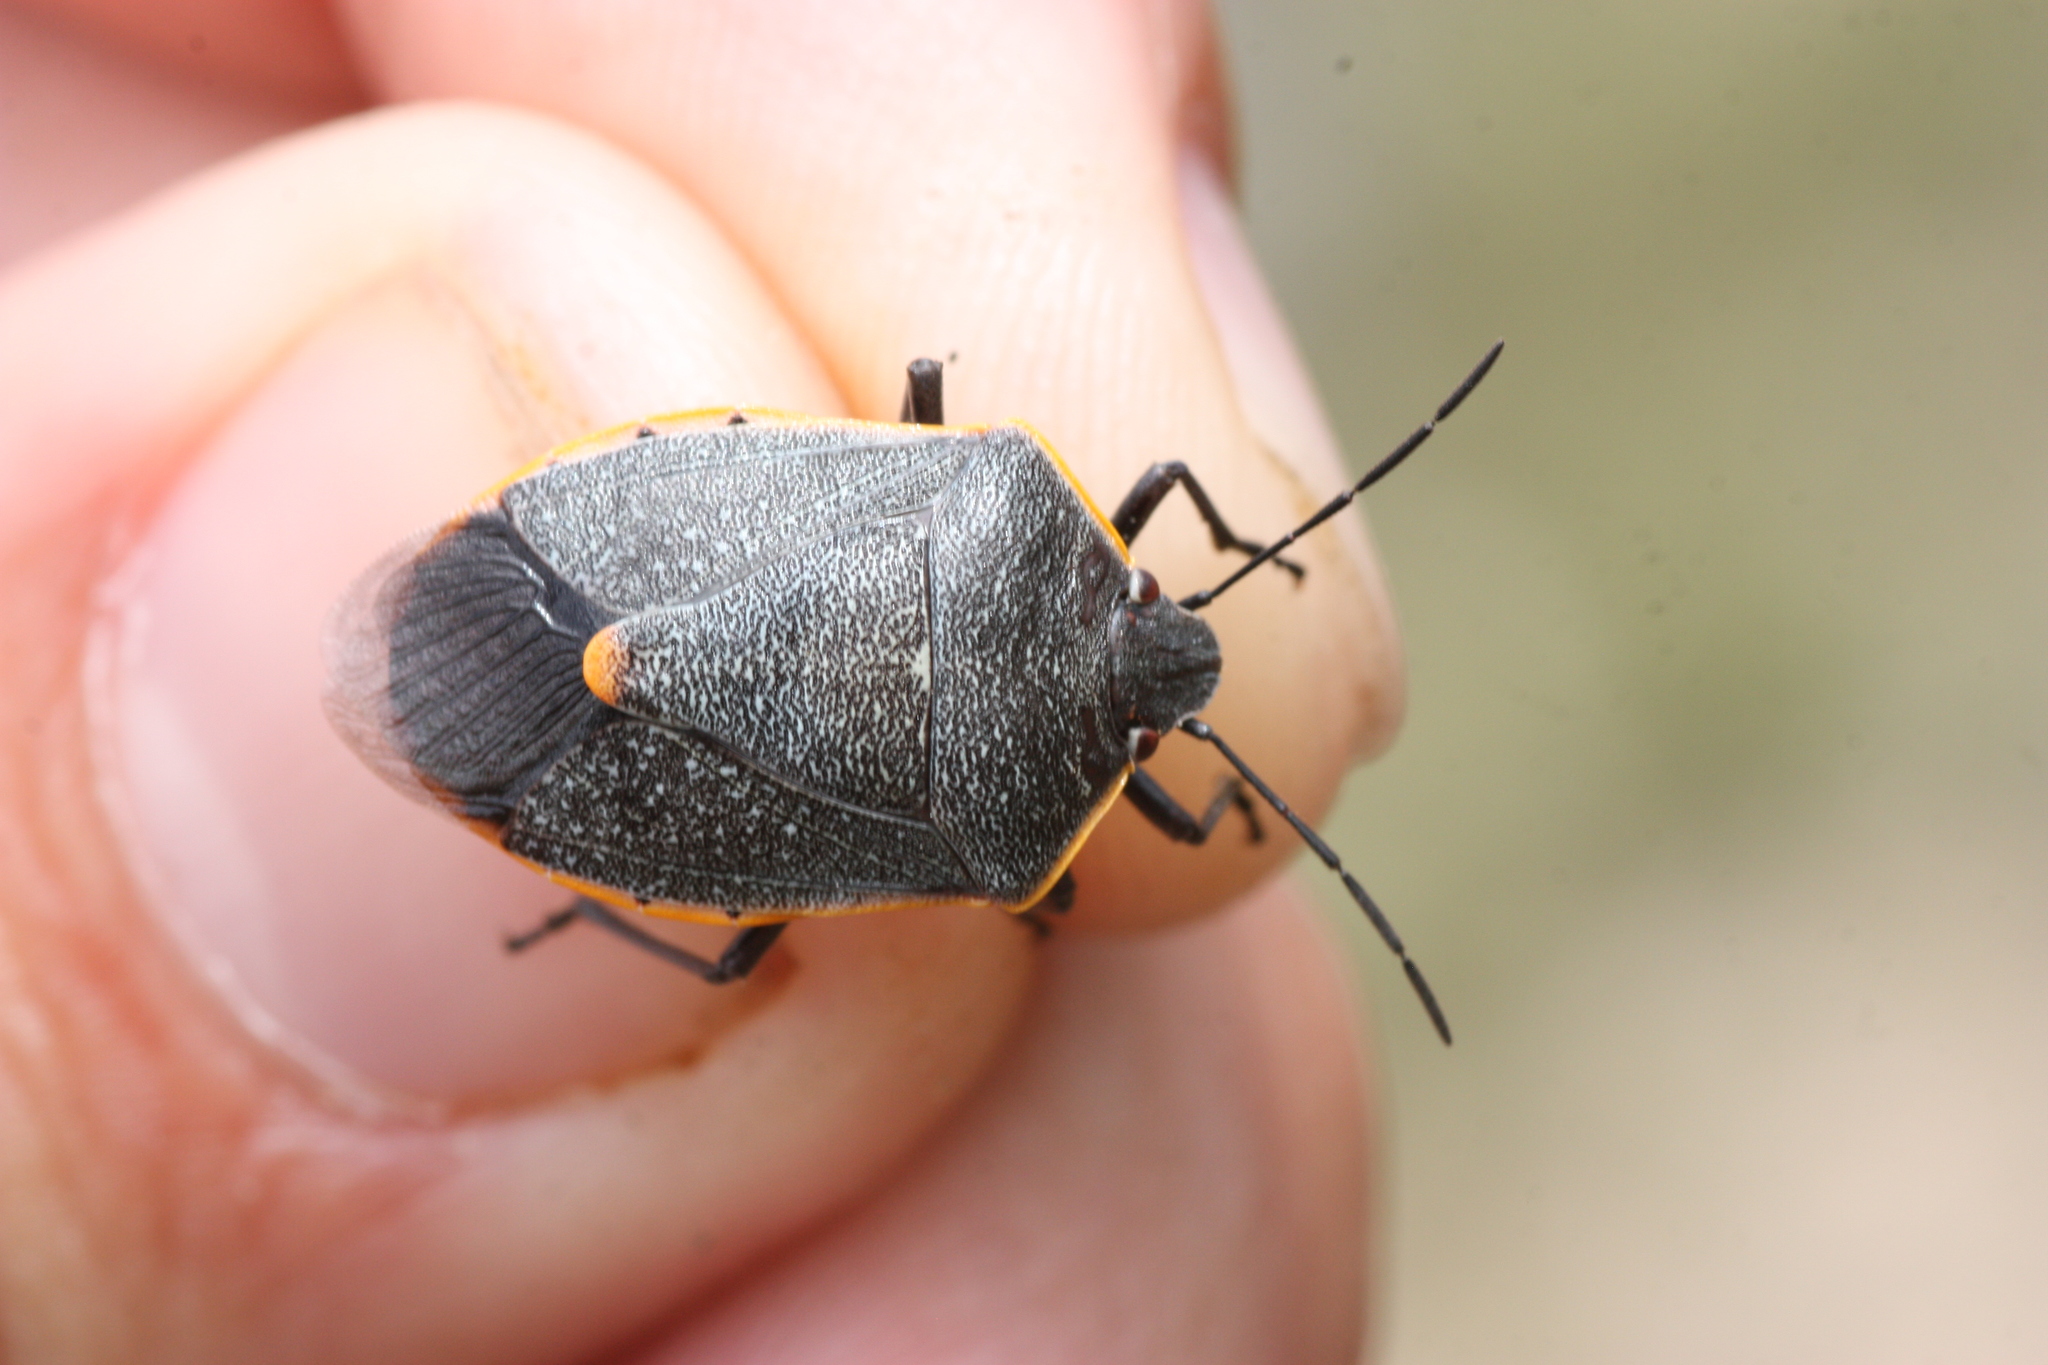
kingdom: Animalia
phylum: Arthropoda
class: Insecta
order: Hemiptera
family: Pentatomidae
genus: Chlorochroa
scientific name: Chlorochroa ligata
